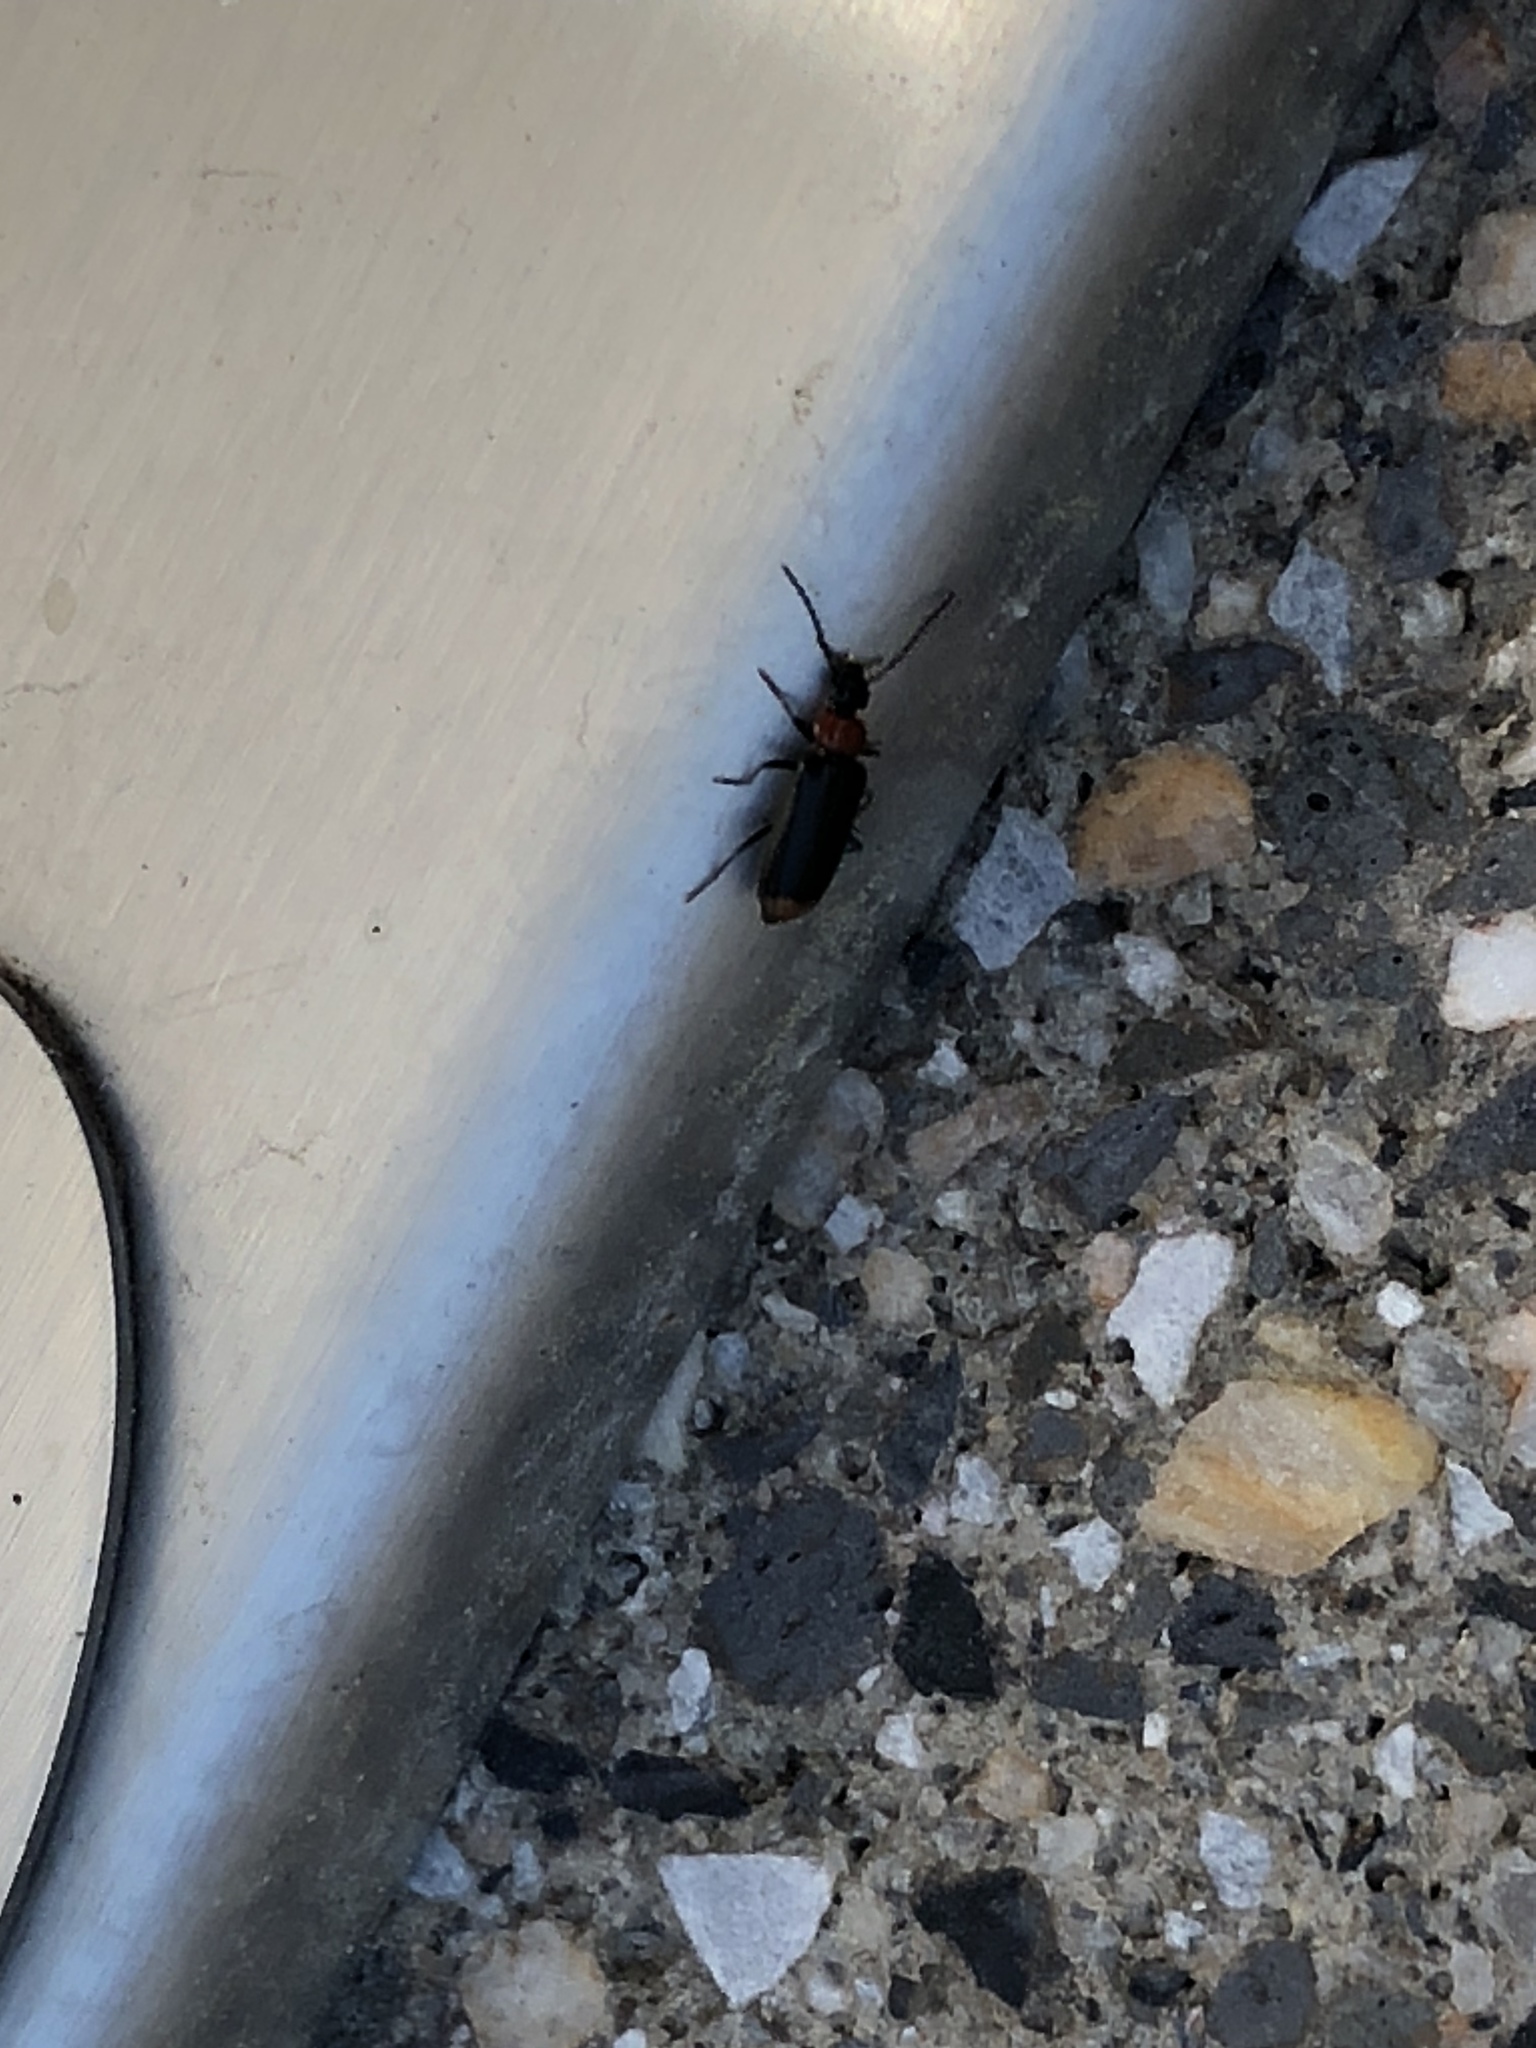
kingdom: Animalia
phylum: Arthropoda
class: Insecta
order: Coleoptera
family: Pyrochroidae
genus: Pedilus
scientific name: Pedilus terminalis
